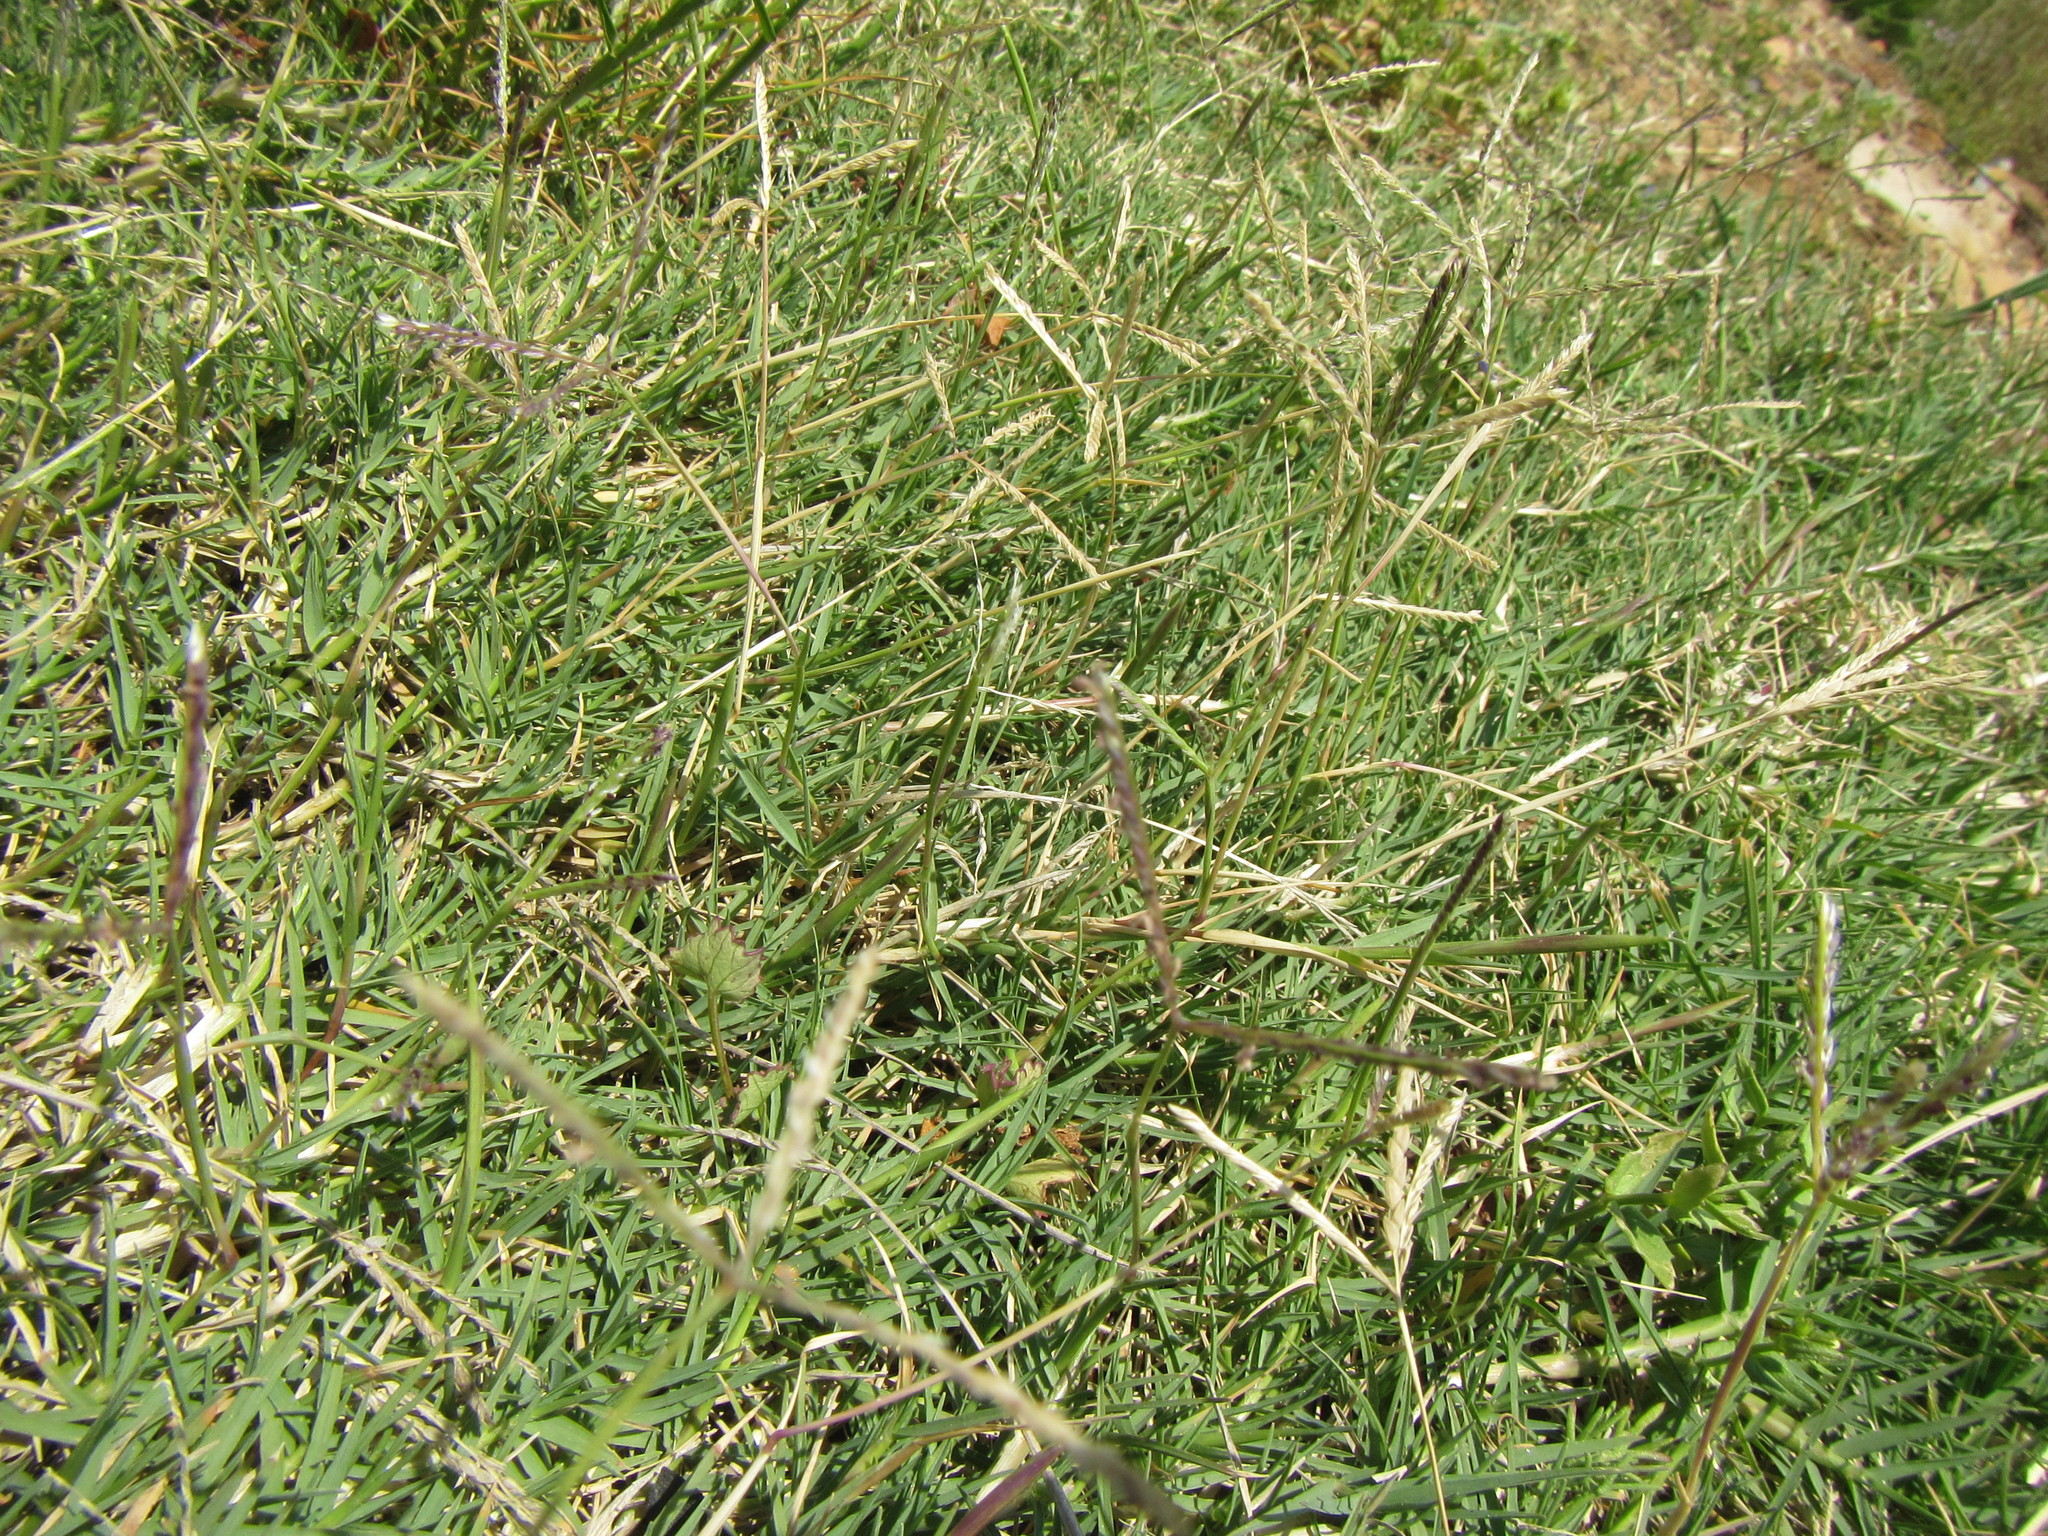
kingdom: Plantae
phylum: Tracheophyta
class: Liliopsida
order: Poales
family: Poaceae
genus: Cynodon
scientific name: Cynodon dactylon
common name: Bermuda grass
